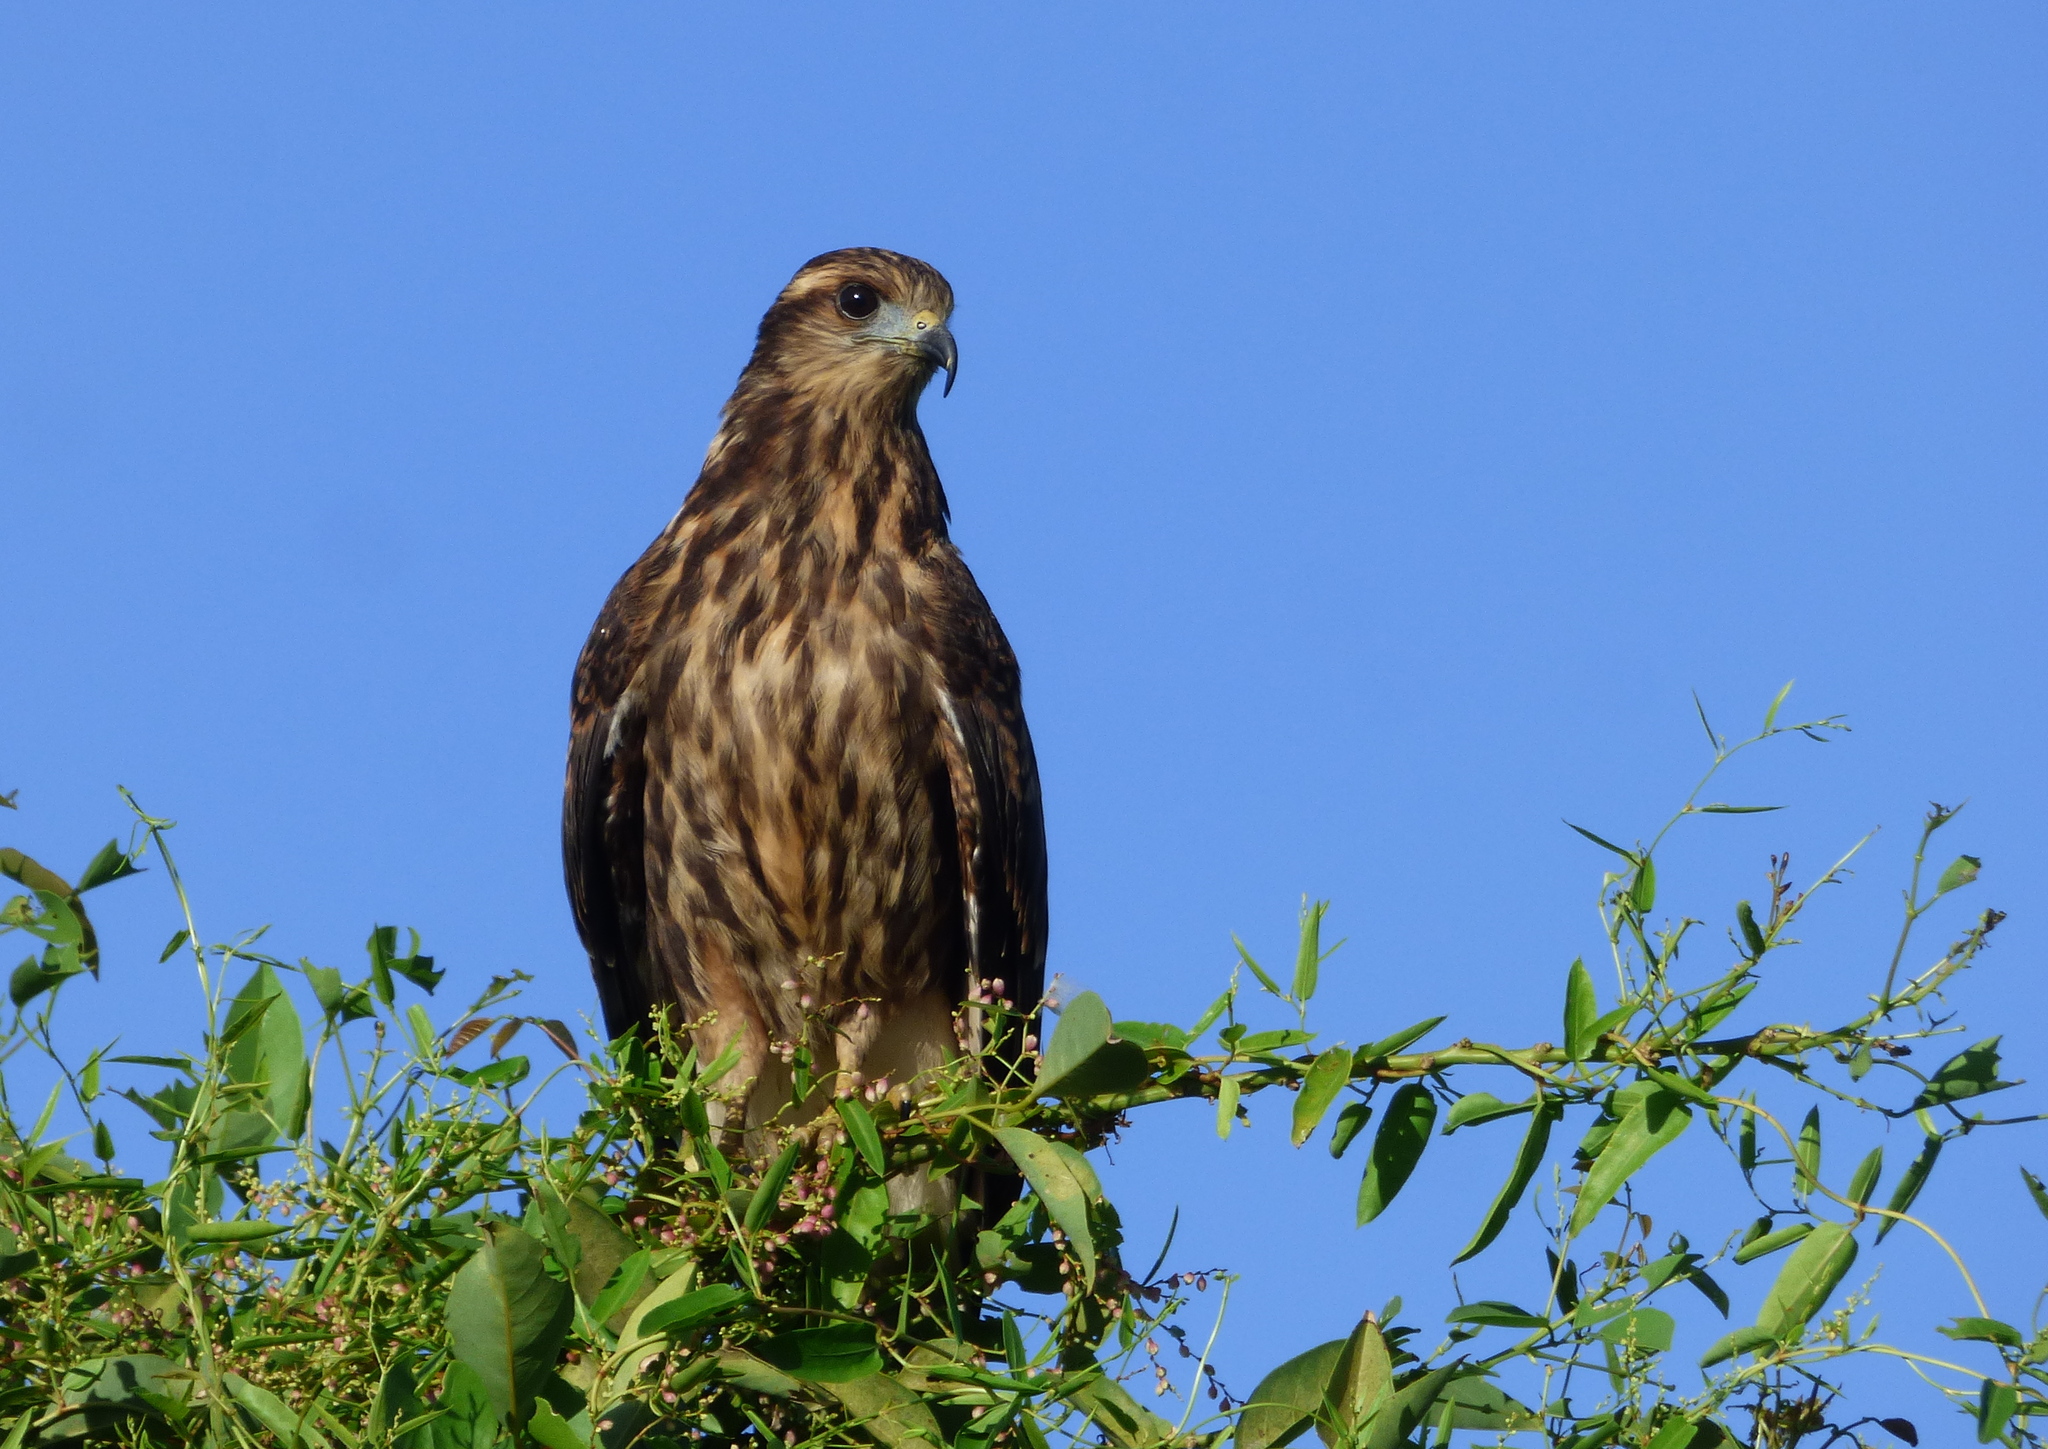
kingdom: Animalia
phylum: Chordata
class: Aves
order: Accipitriformes
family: Accipitridae
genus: Rostrhamus
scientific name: Rostrhamus sociabilis
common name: Snail kite
